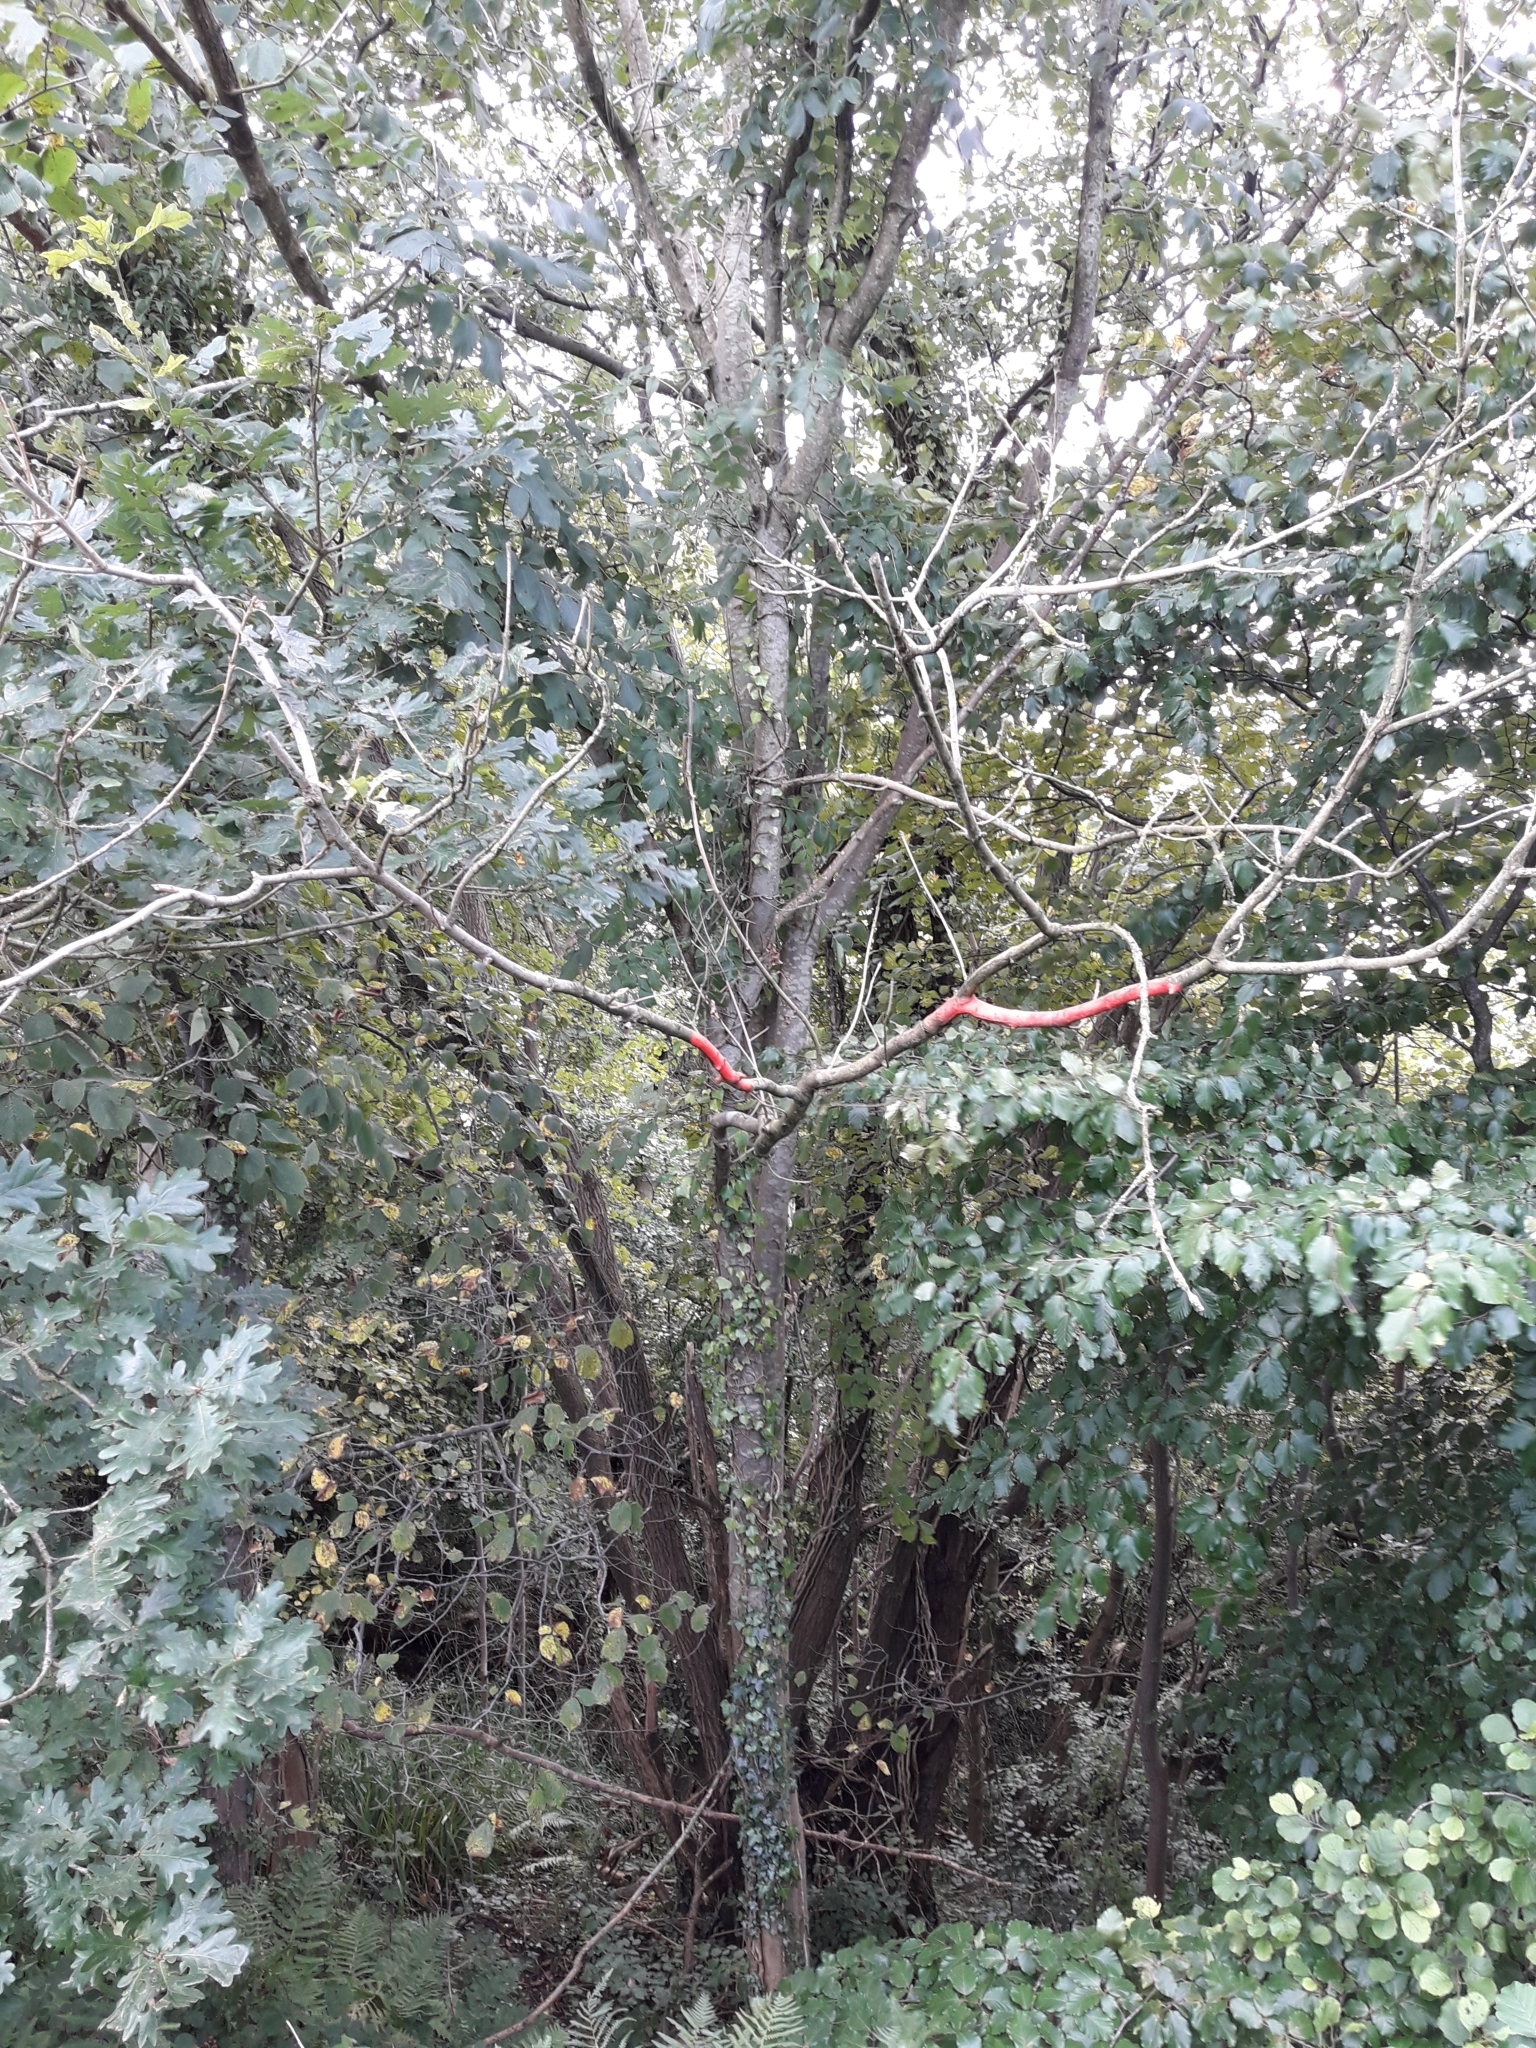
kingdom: Plantae
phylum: Tracheophyta
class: Magnoliopsida
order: Lamiales
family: Oleaceae
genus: Fraxinus
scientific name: Fraxinus excelsior
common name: European ash
